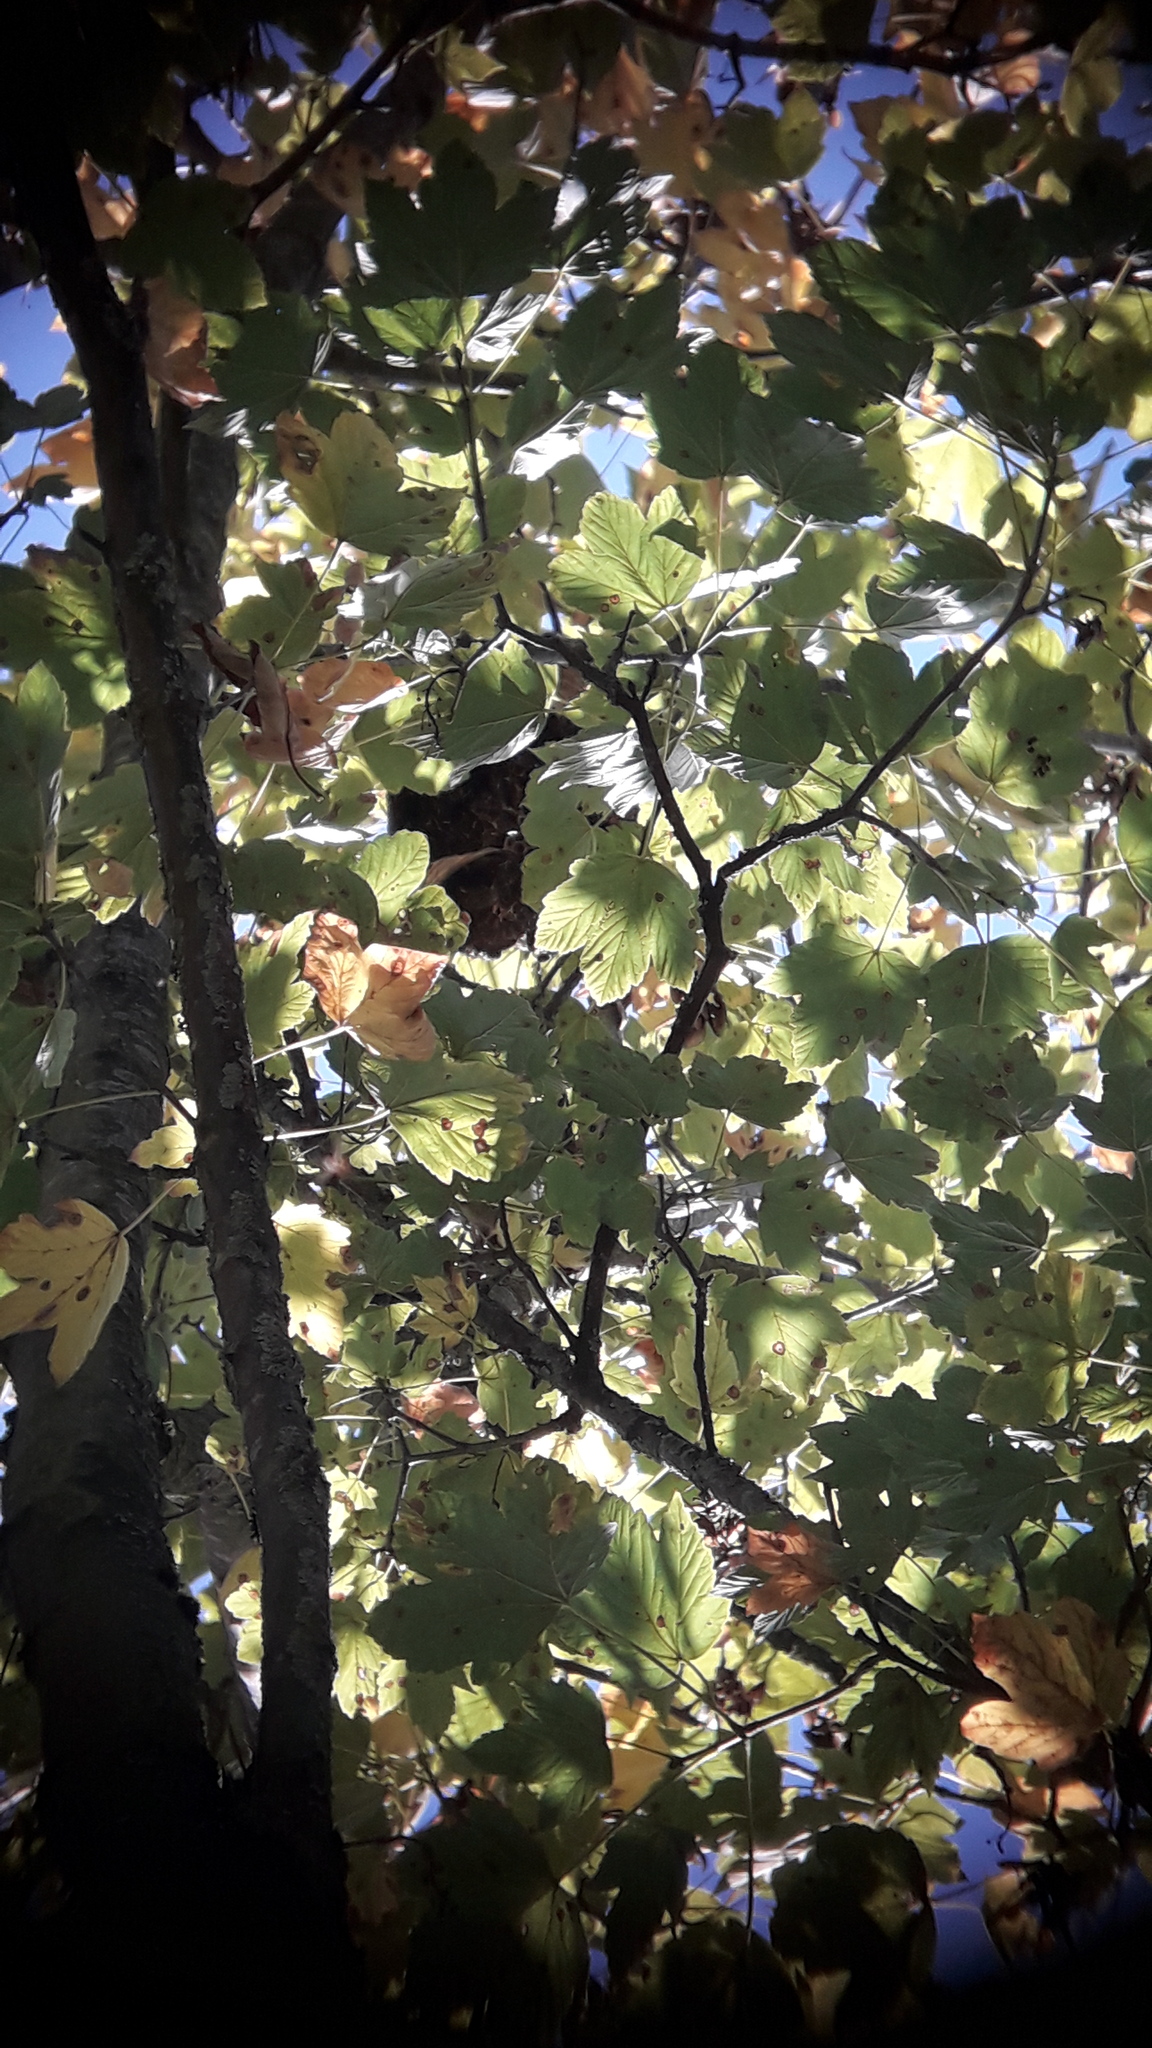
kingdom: Animalia
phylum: Arthropoda
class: Insecta
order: Hymenoptera
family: Vespidae
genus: Vespa
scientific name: Vespa velutina
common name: Asian hornet
